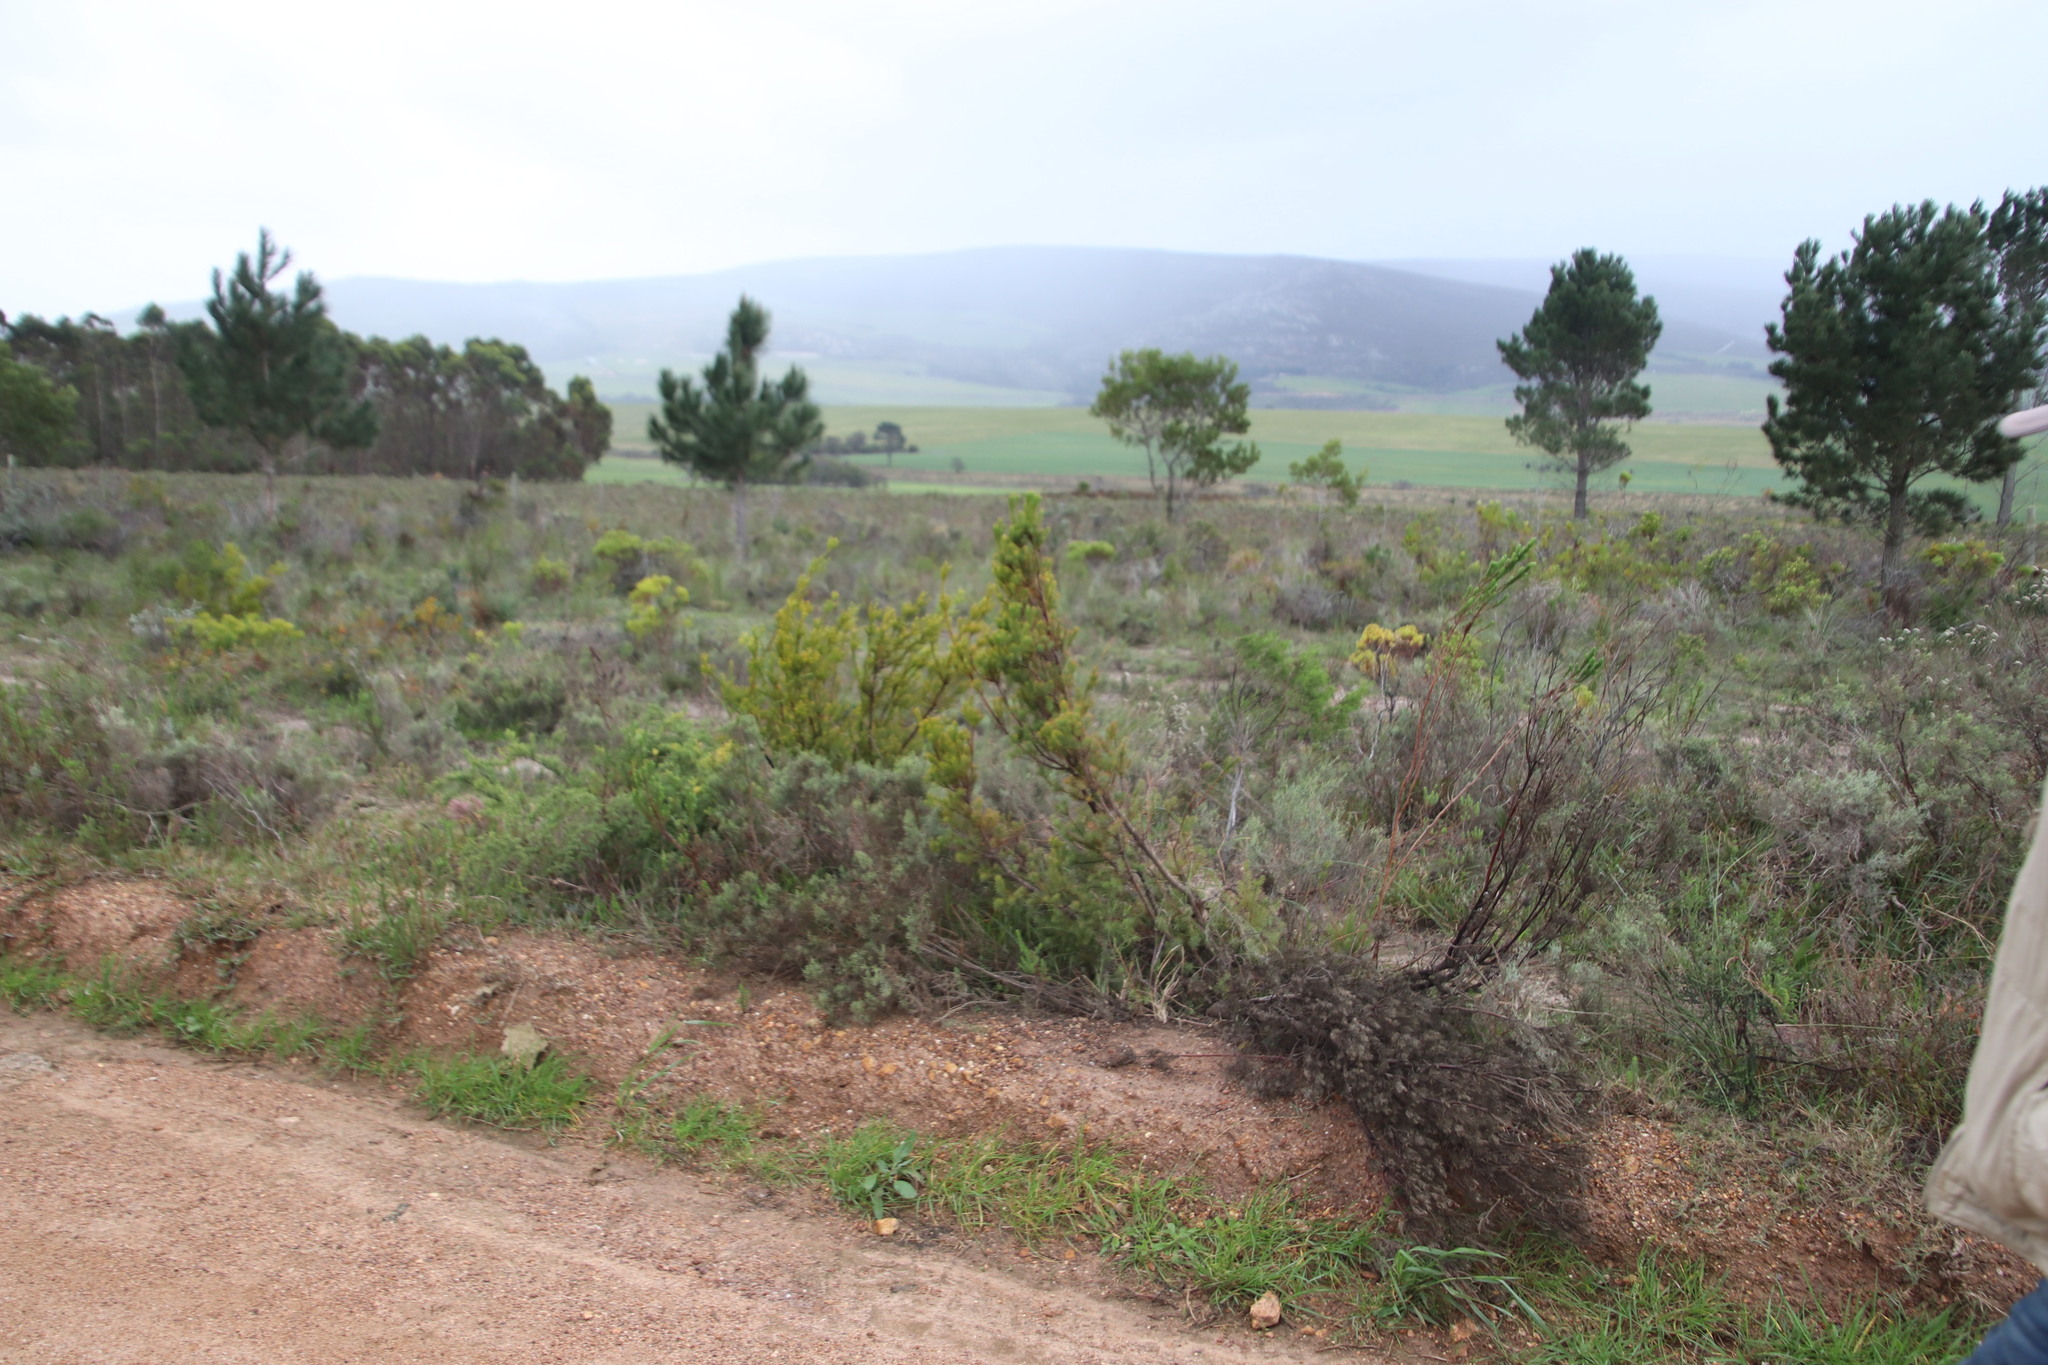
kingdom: Plantae
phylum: Tracheophyta
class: Magnoliopsida
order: Proteales
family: Proteaceae
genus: Leucadendron
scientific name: Leucadendron laxum
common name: Bredasdorp conebush
